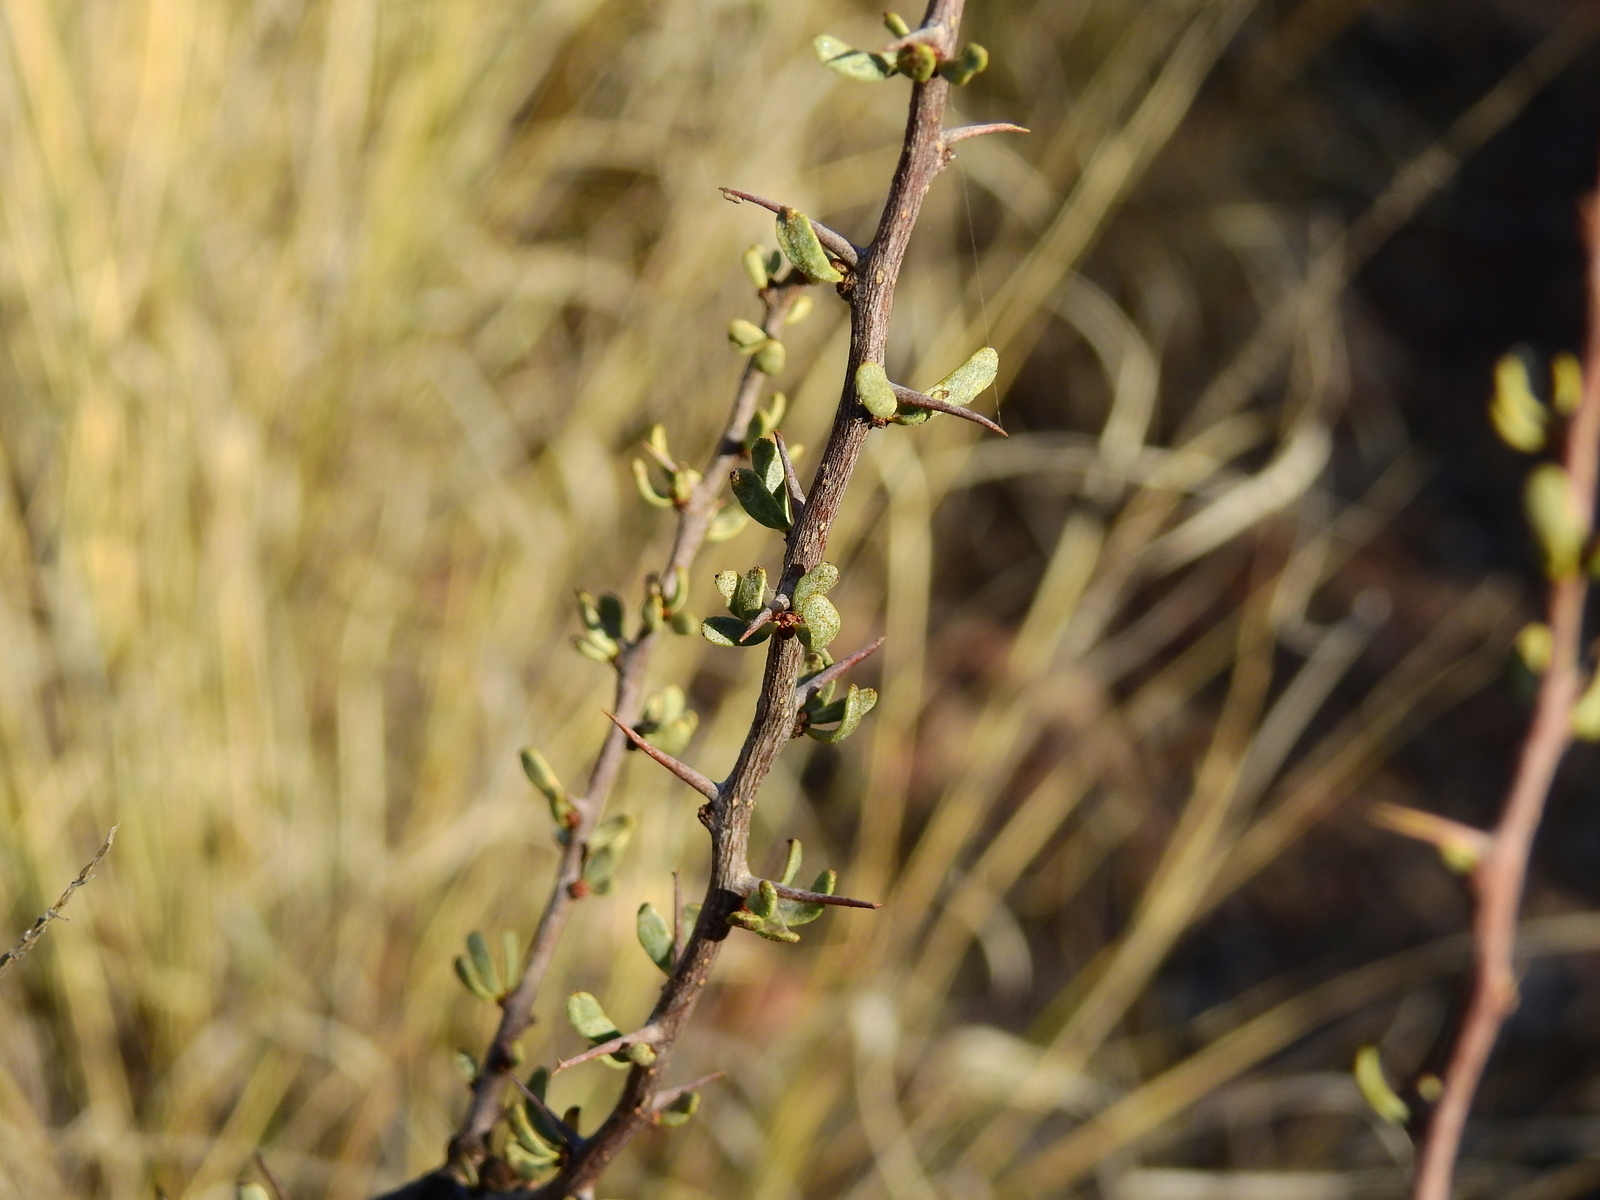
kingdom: Plantae
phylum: Tracheophyta
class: Magnoliopsida
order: Caryophyllales
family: Nyctaginaceae
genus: Bougainvillea
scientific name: Bougainvillea spinosa
